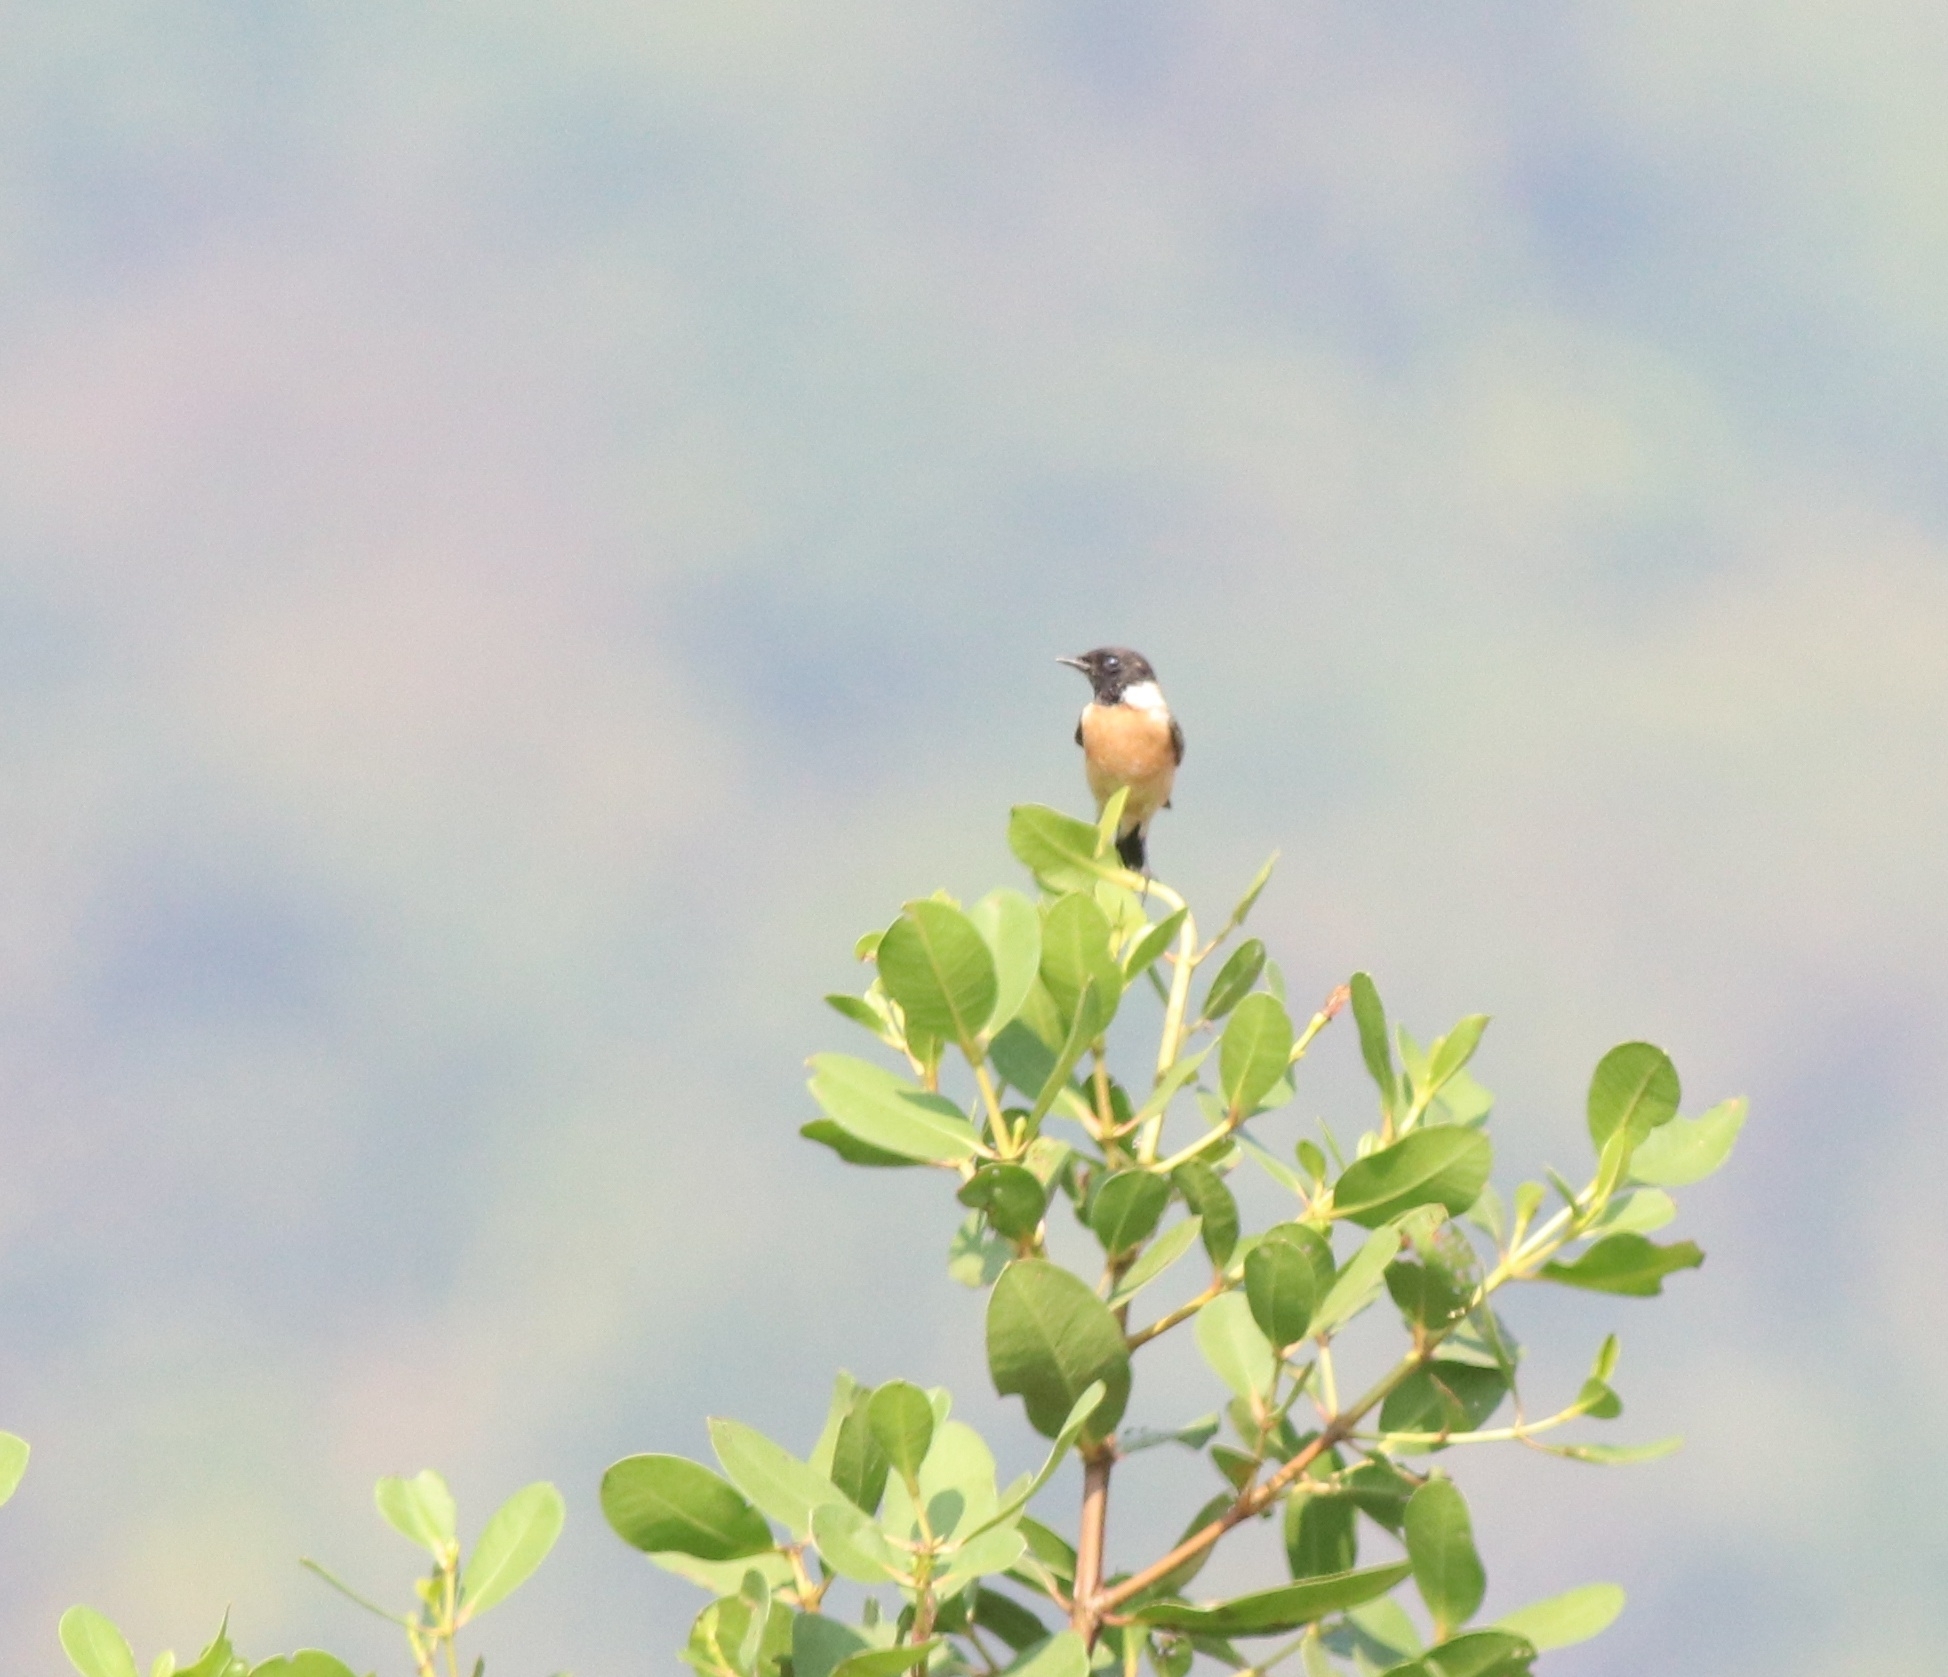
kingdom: Animalia
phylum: Chordata
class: Aves
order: Passeriformes
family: Muscicapidae
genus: Saxicola
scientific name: Saxicola maurus
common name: Siberian stonechat
